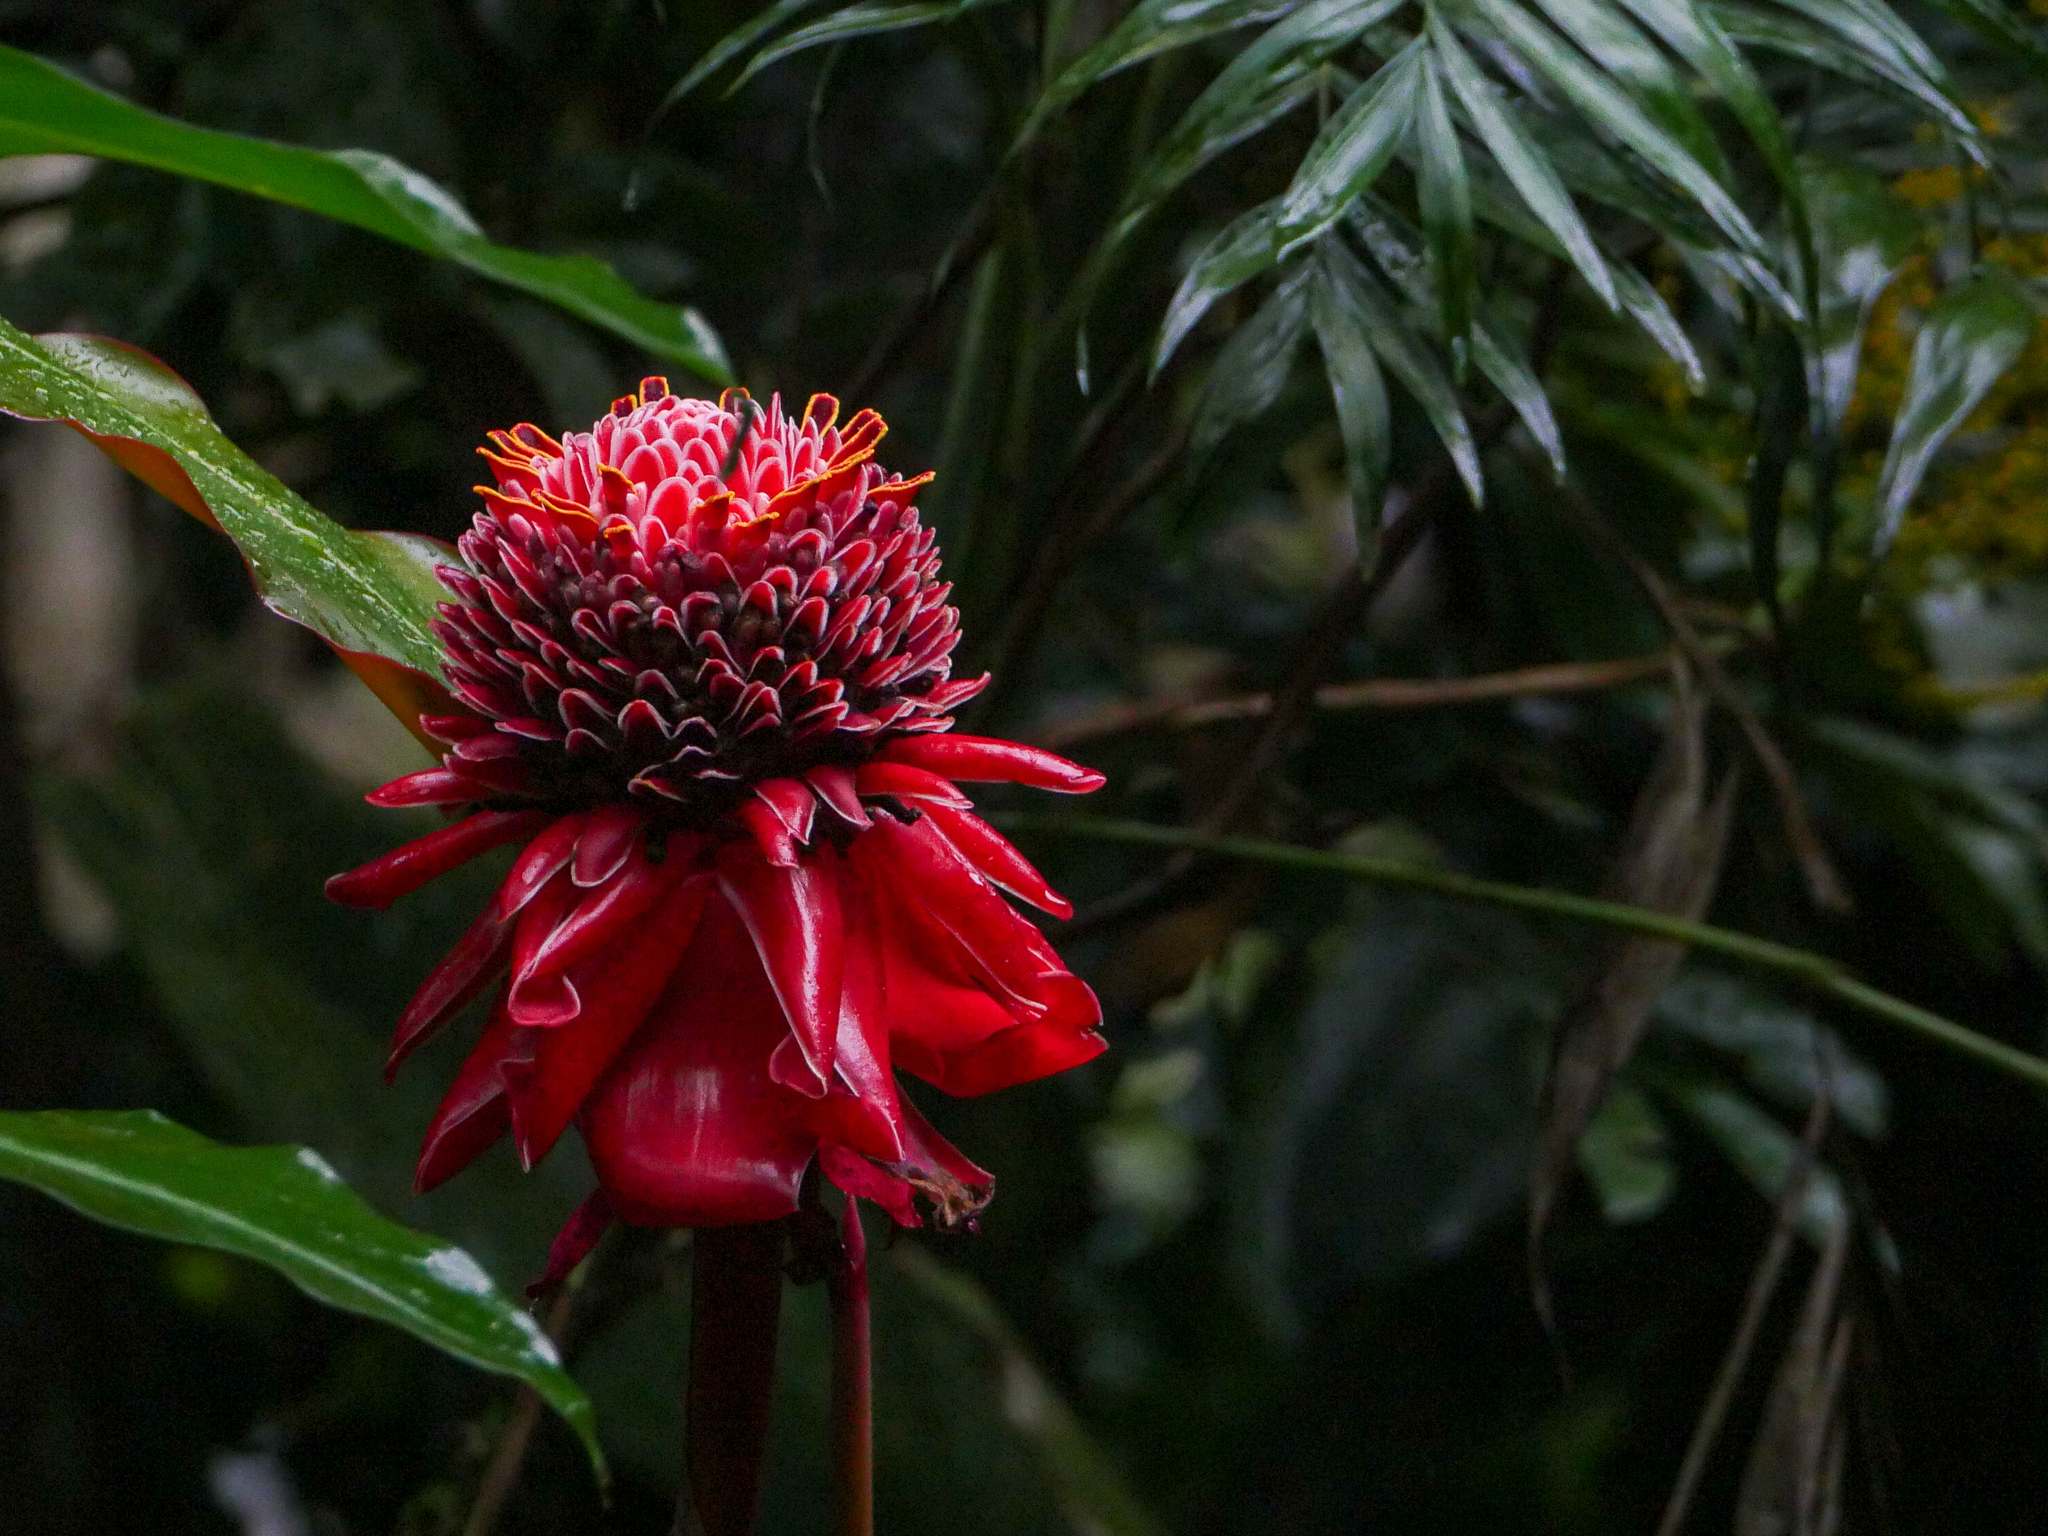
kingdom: Plantae
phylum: Tracheophyta
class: Liliopsida
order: Zingiberales
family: Zingiberaceae
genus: Etlingera
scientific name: Etlingera elatior
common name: Philippine waxflower
